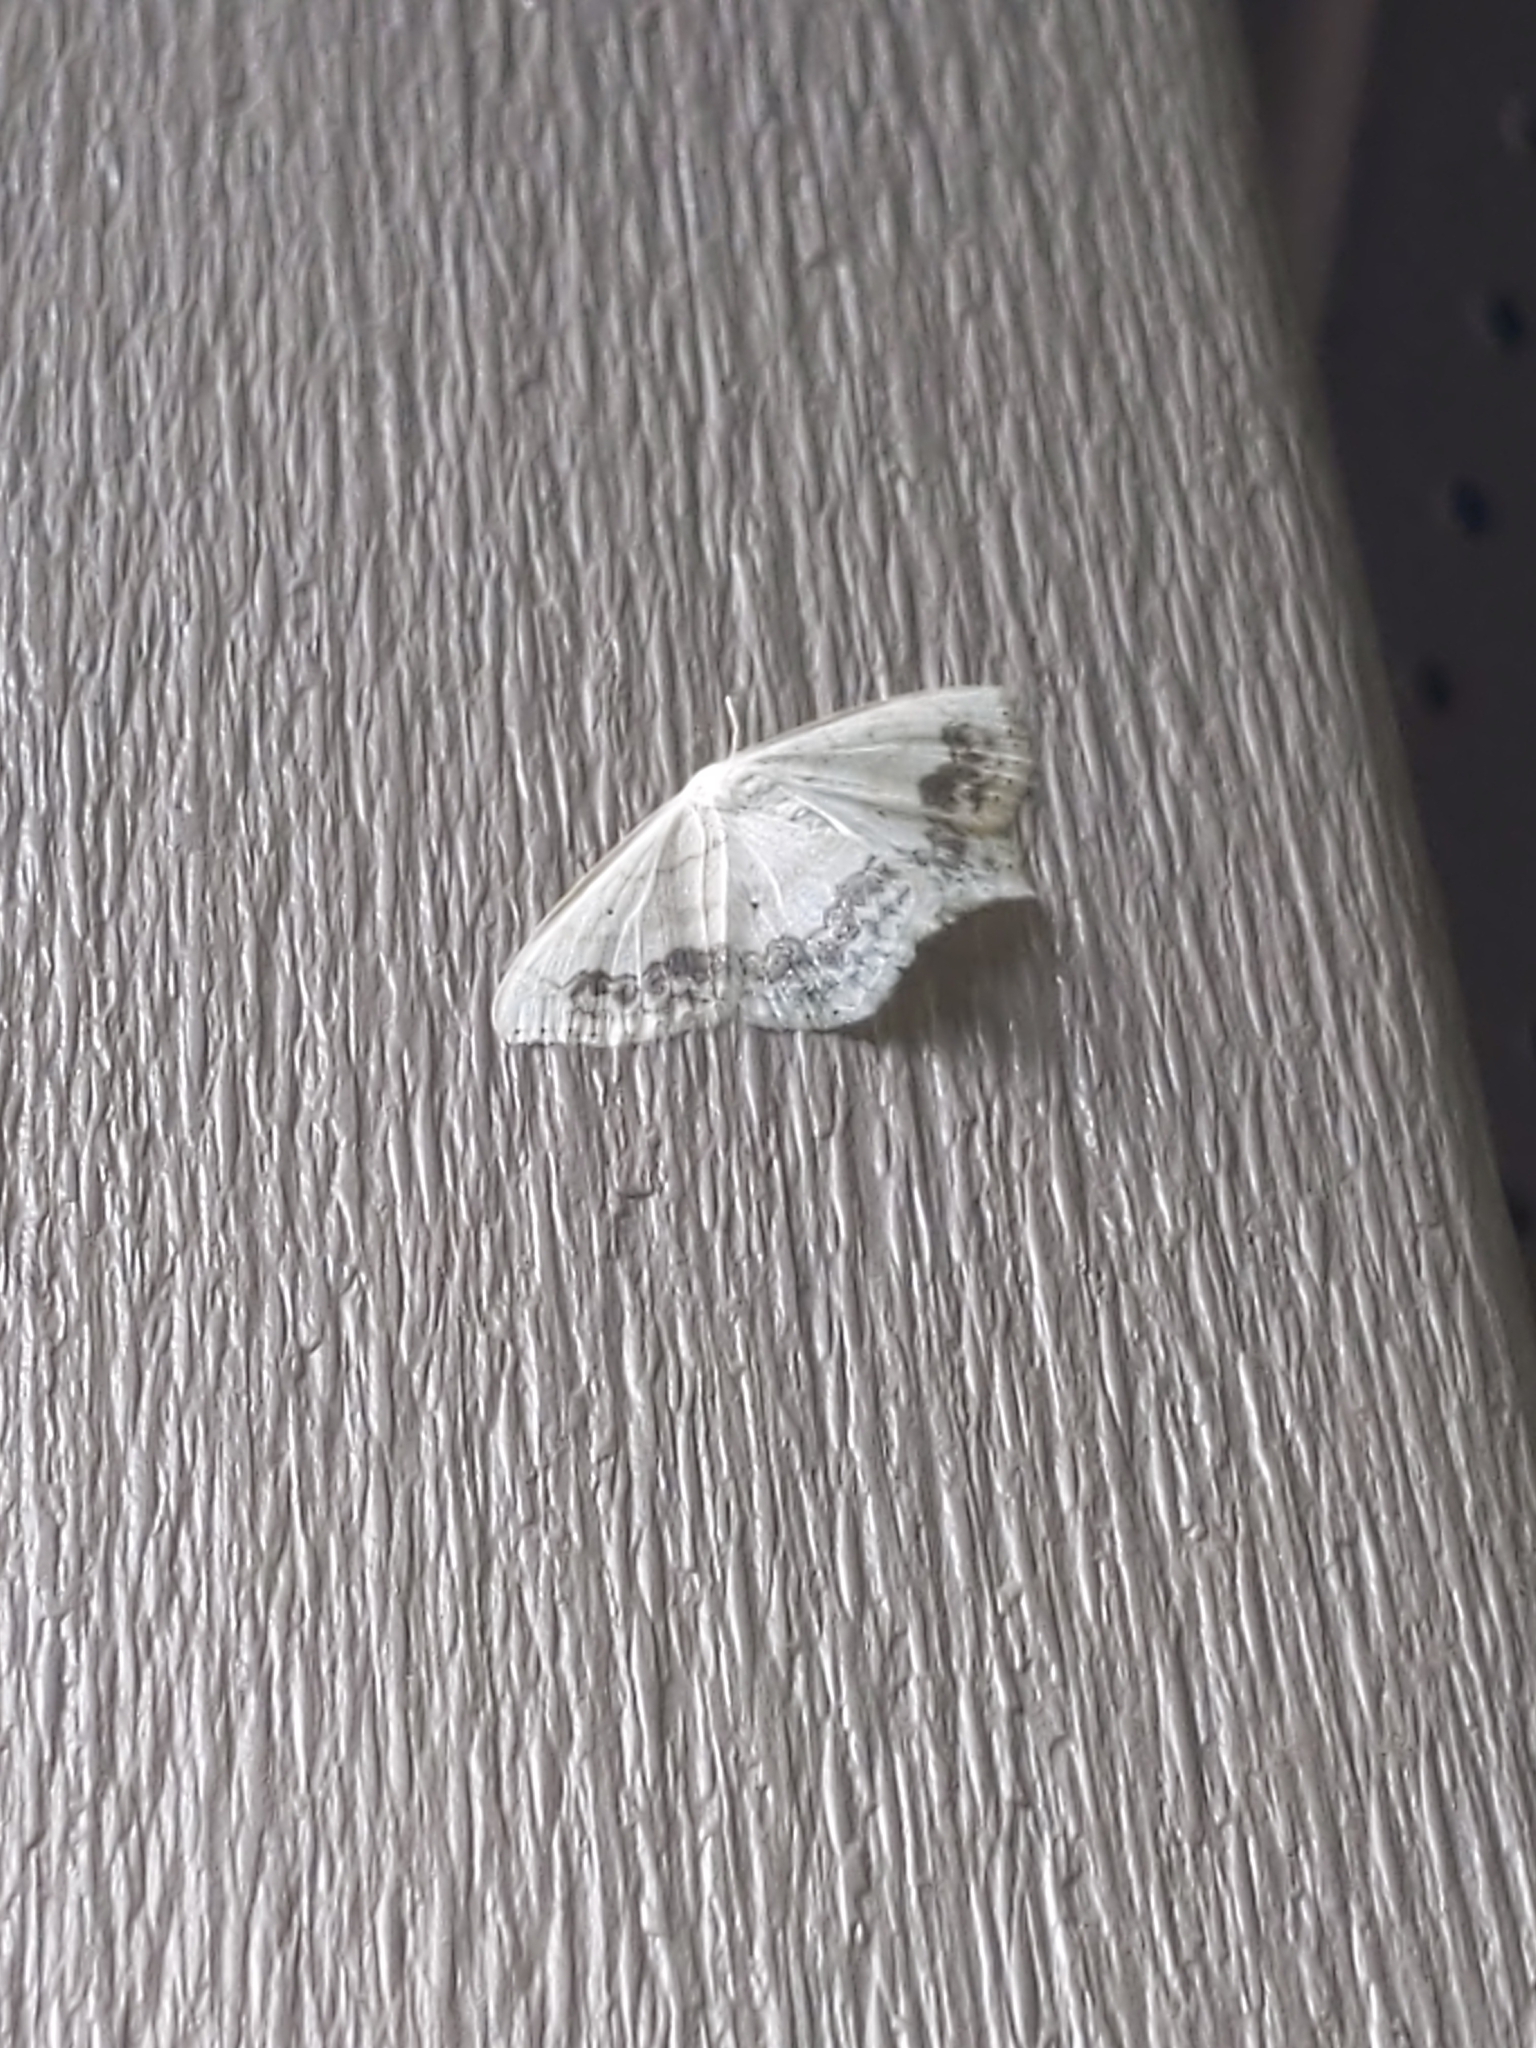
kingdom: Animalia
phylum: Arthropoda
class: Insecta
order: Lepidoptera
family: Geometridae
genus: Scopula
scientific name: Scopula limboundata
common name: Large lace border
